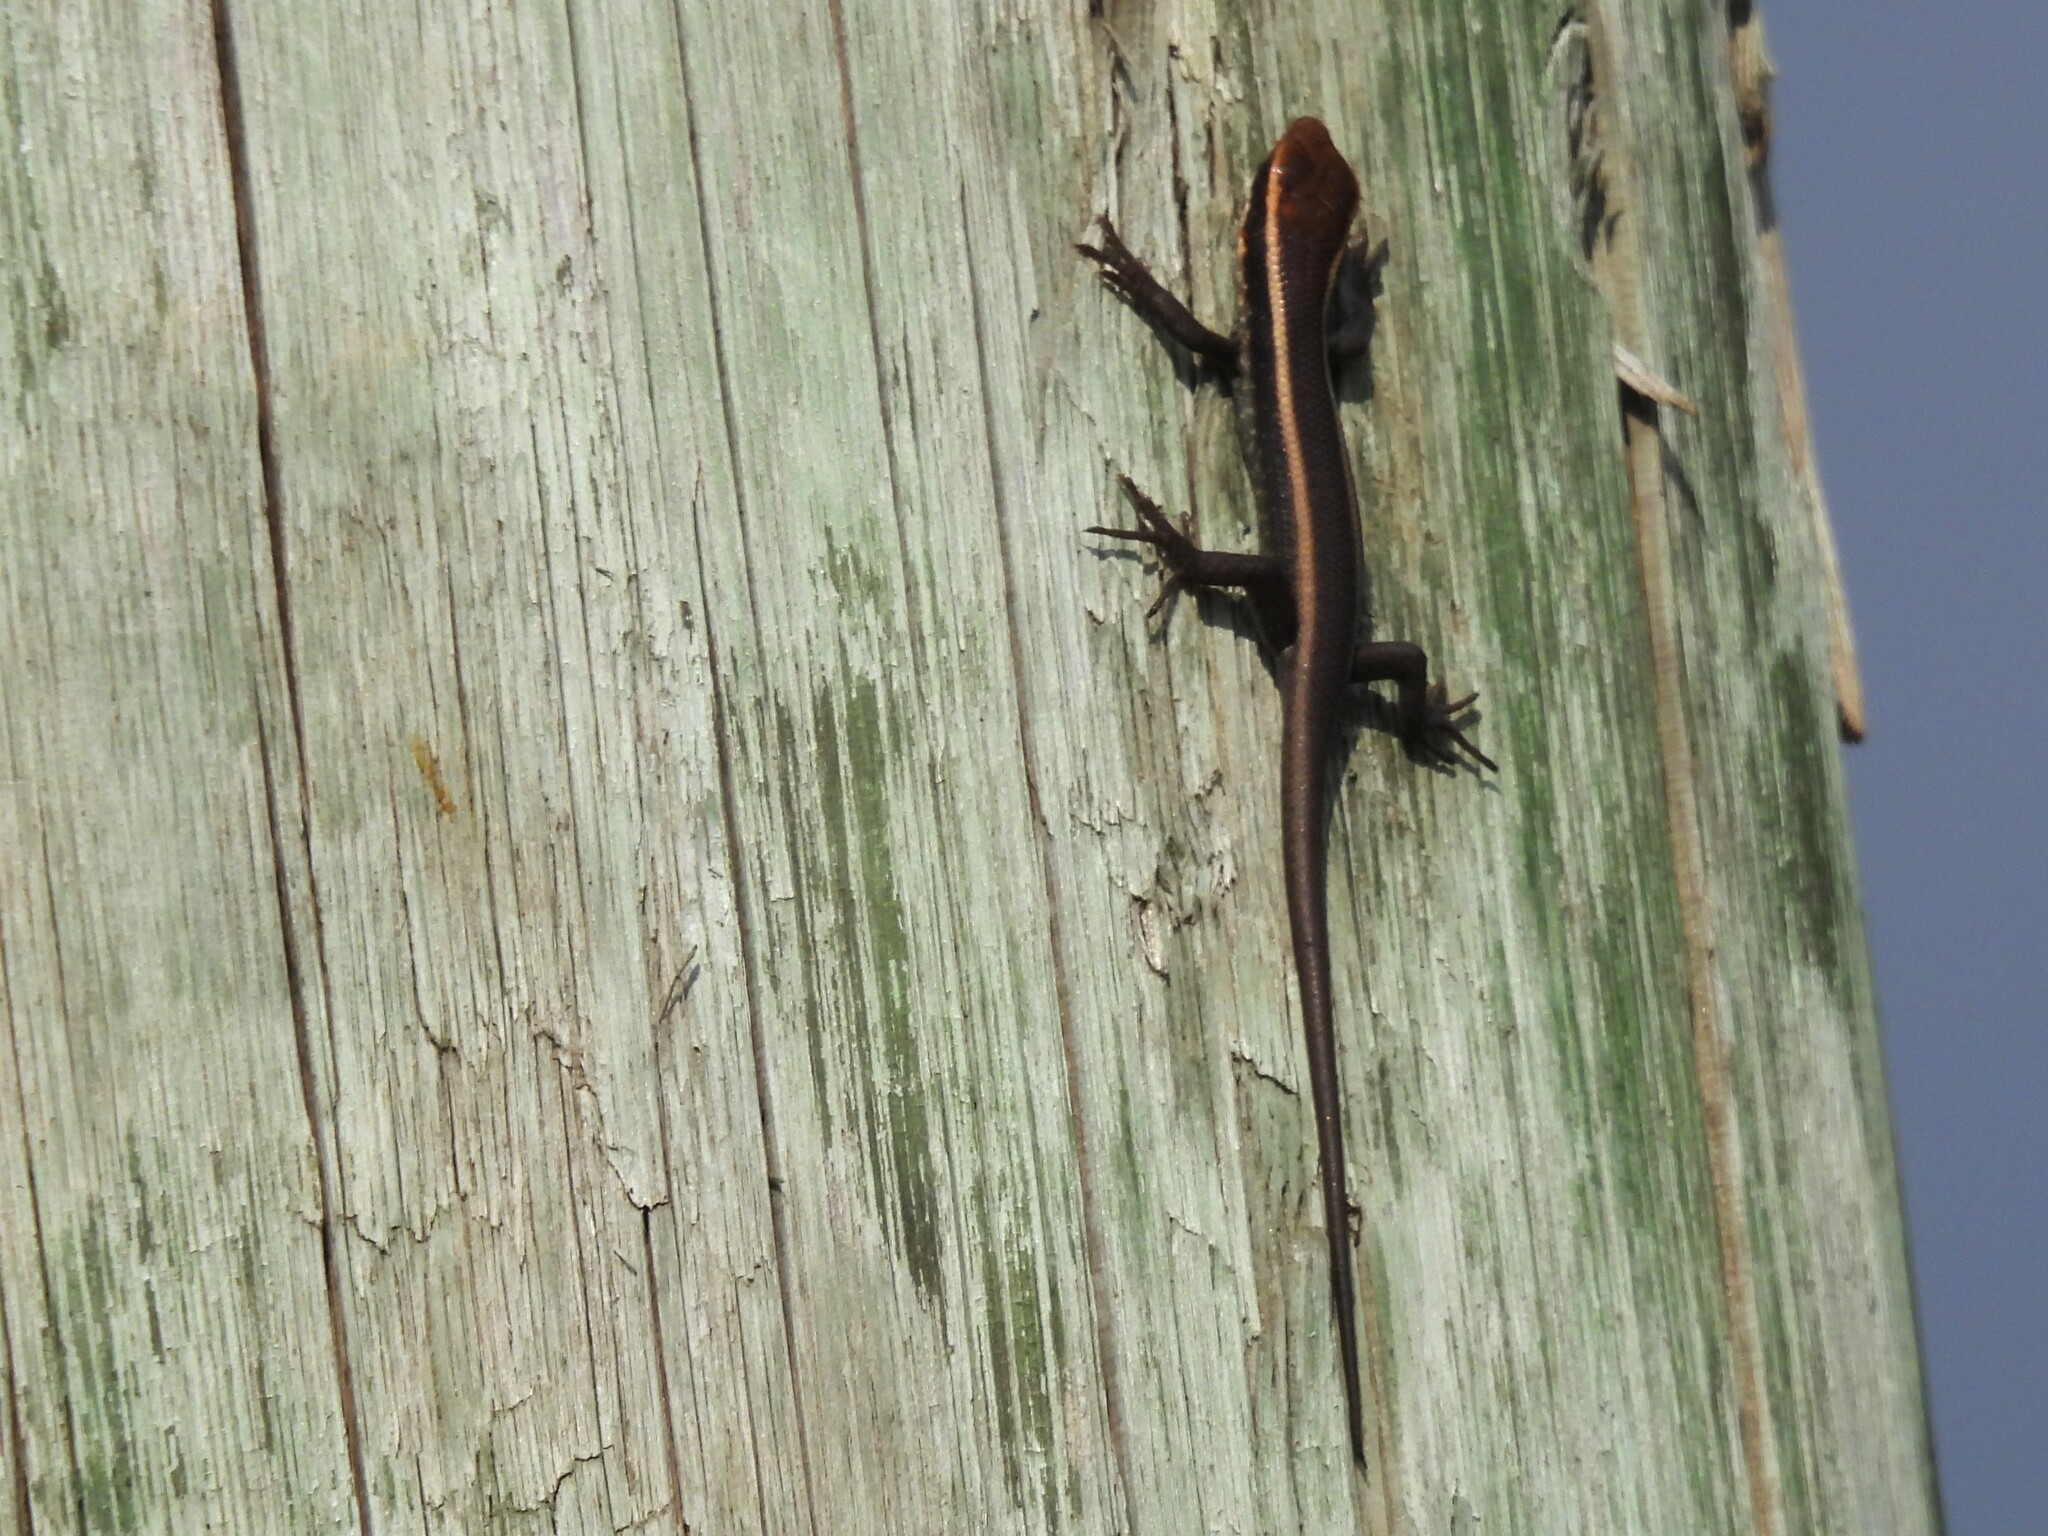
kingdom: Animalia
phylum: Chordata
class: Squamata
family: Scincidae
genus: Trachylepis
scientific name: Trachylepis striata
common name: African striped mabuya
